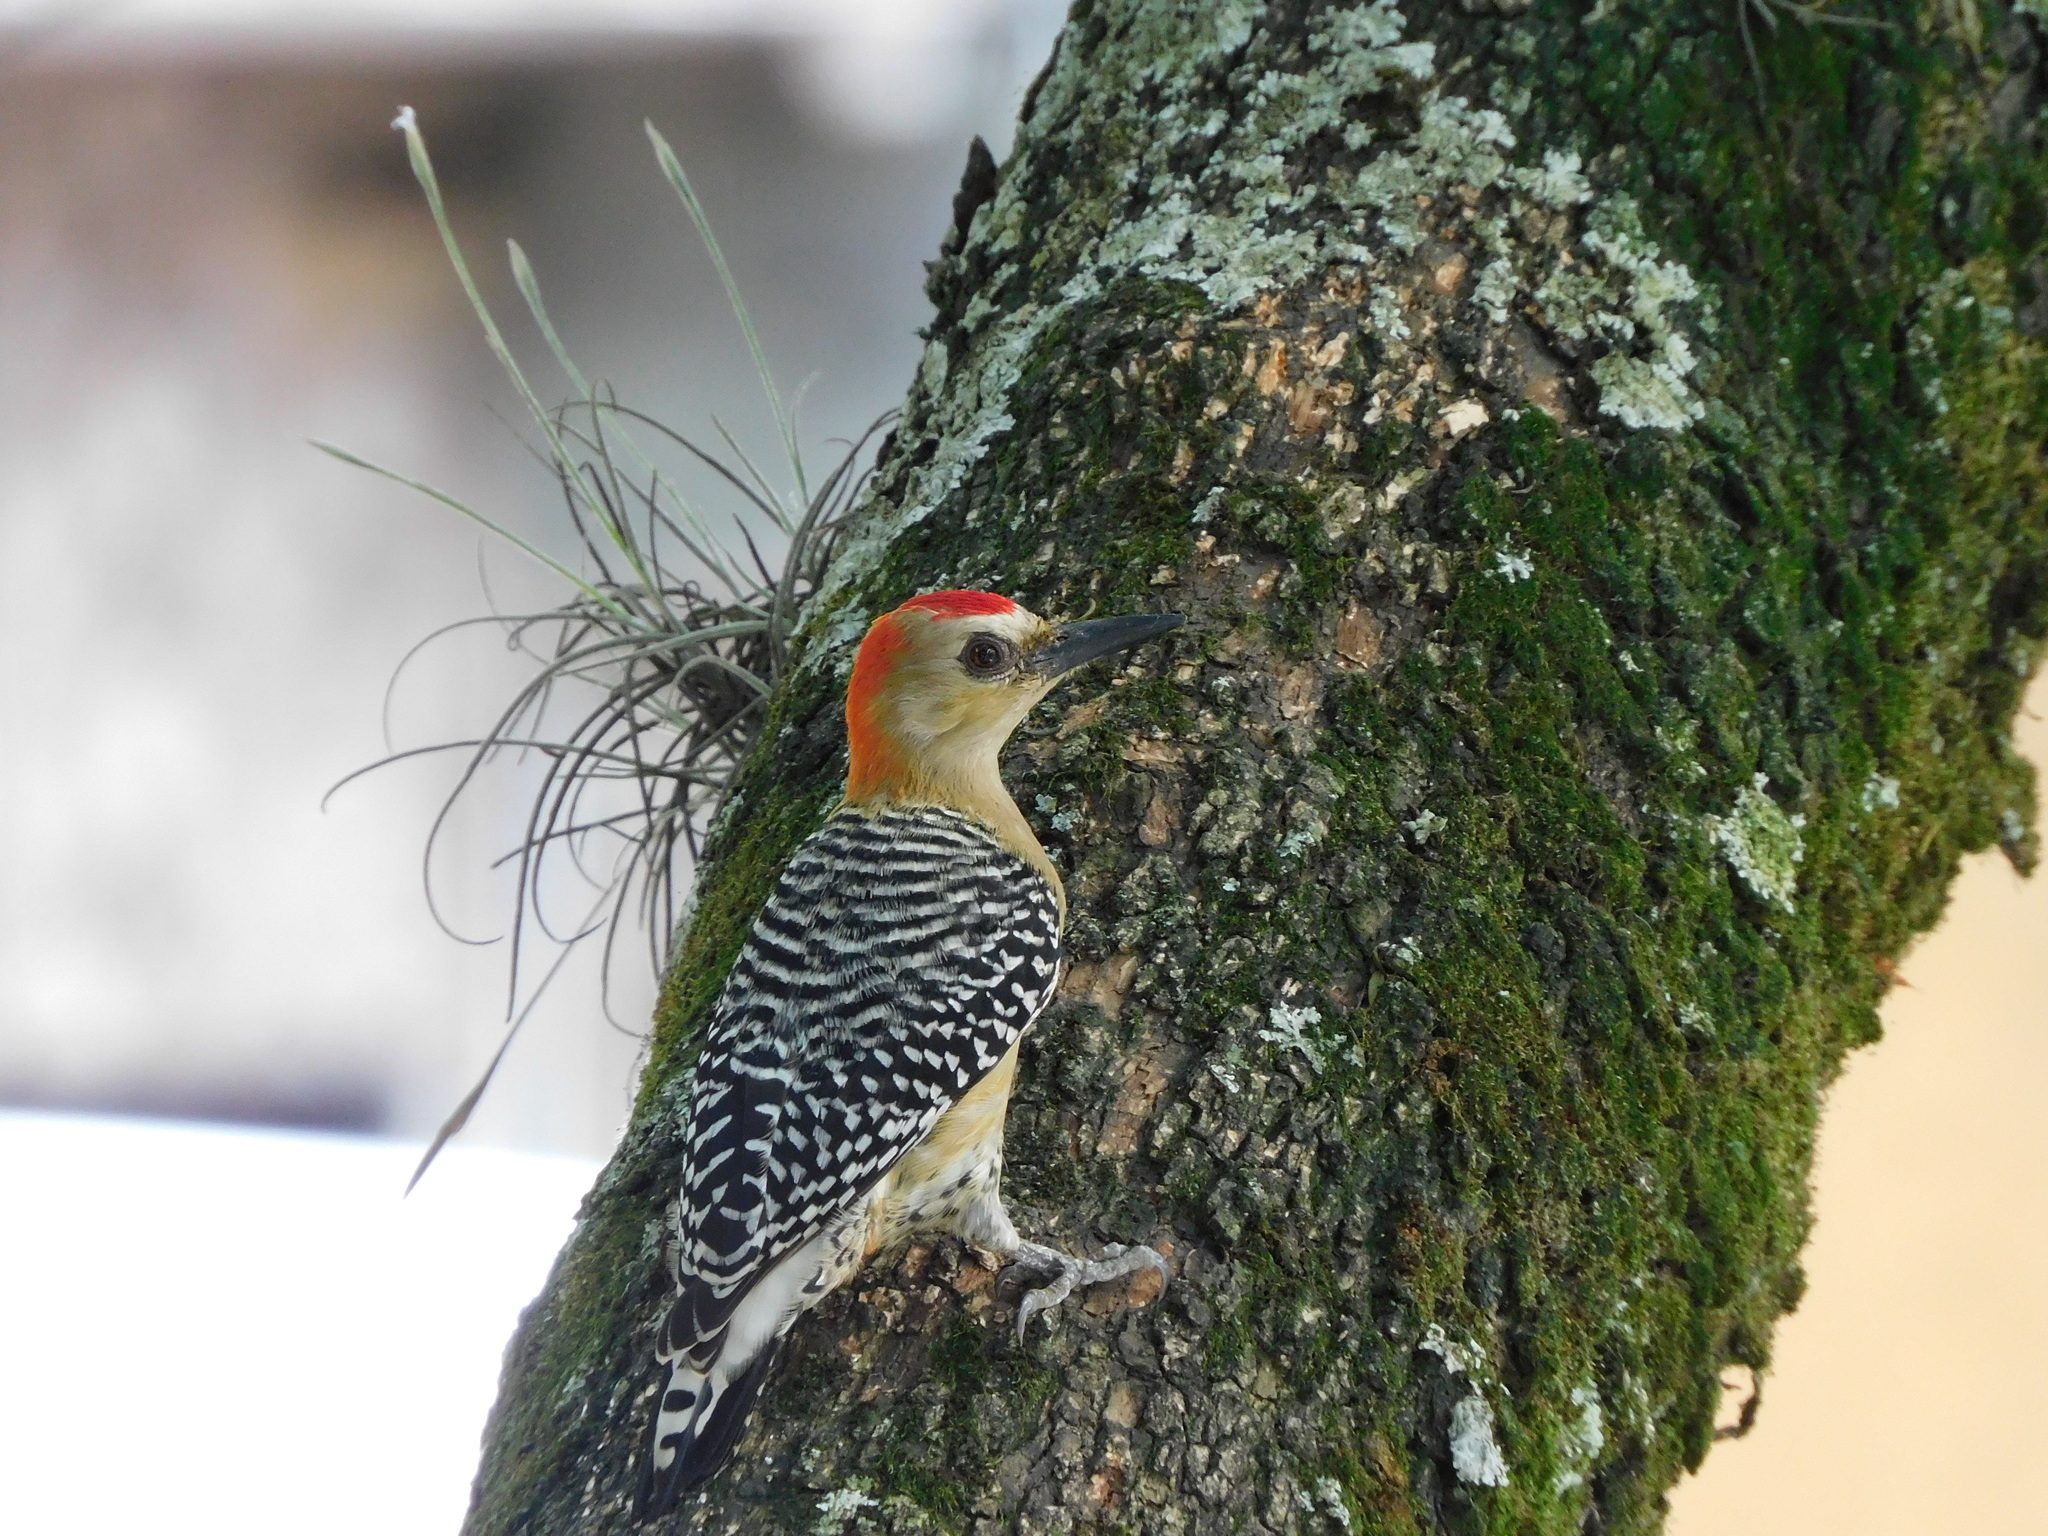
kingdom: Animalia
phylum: Chordata
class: Aves
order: Piciformes
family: Picidae
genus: Melanerpes
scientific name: Melanerpes rubricapillus
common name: Red-crowned woodpecker
